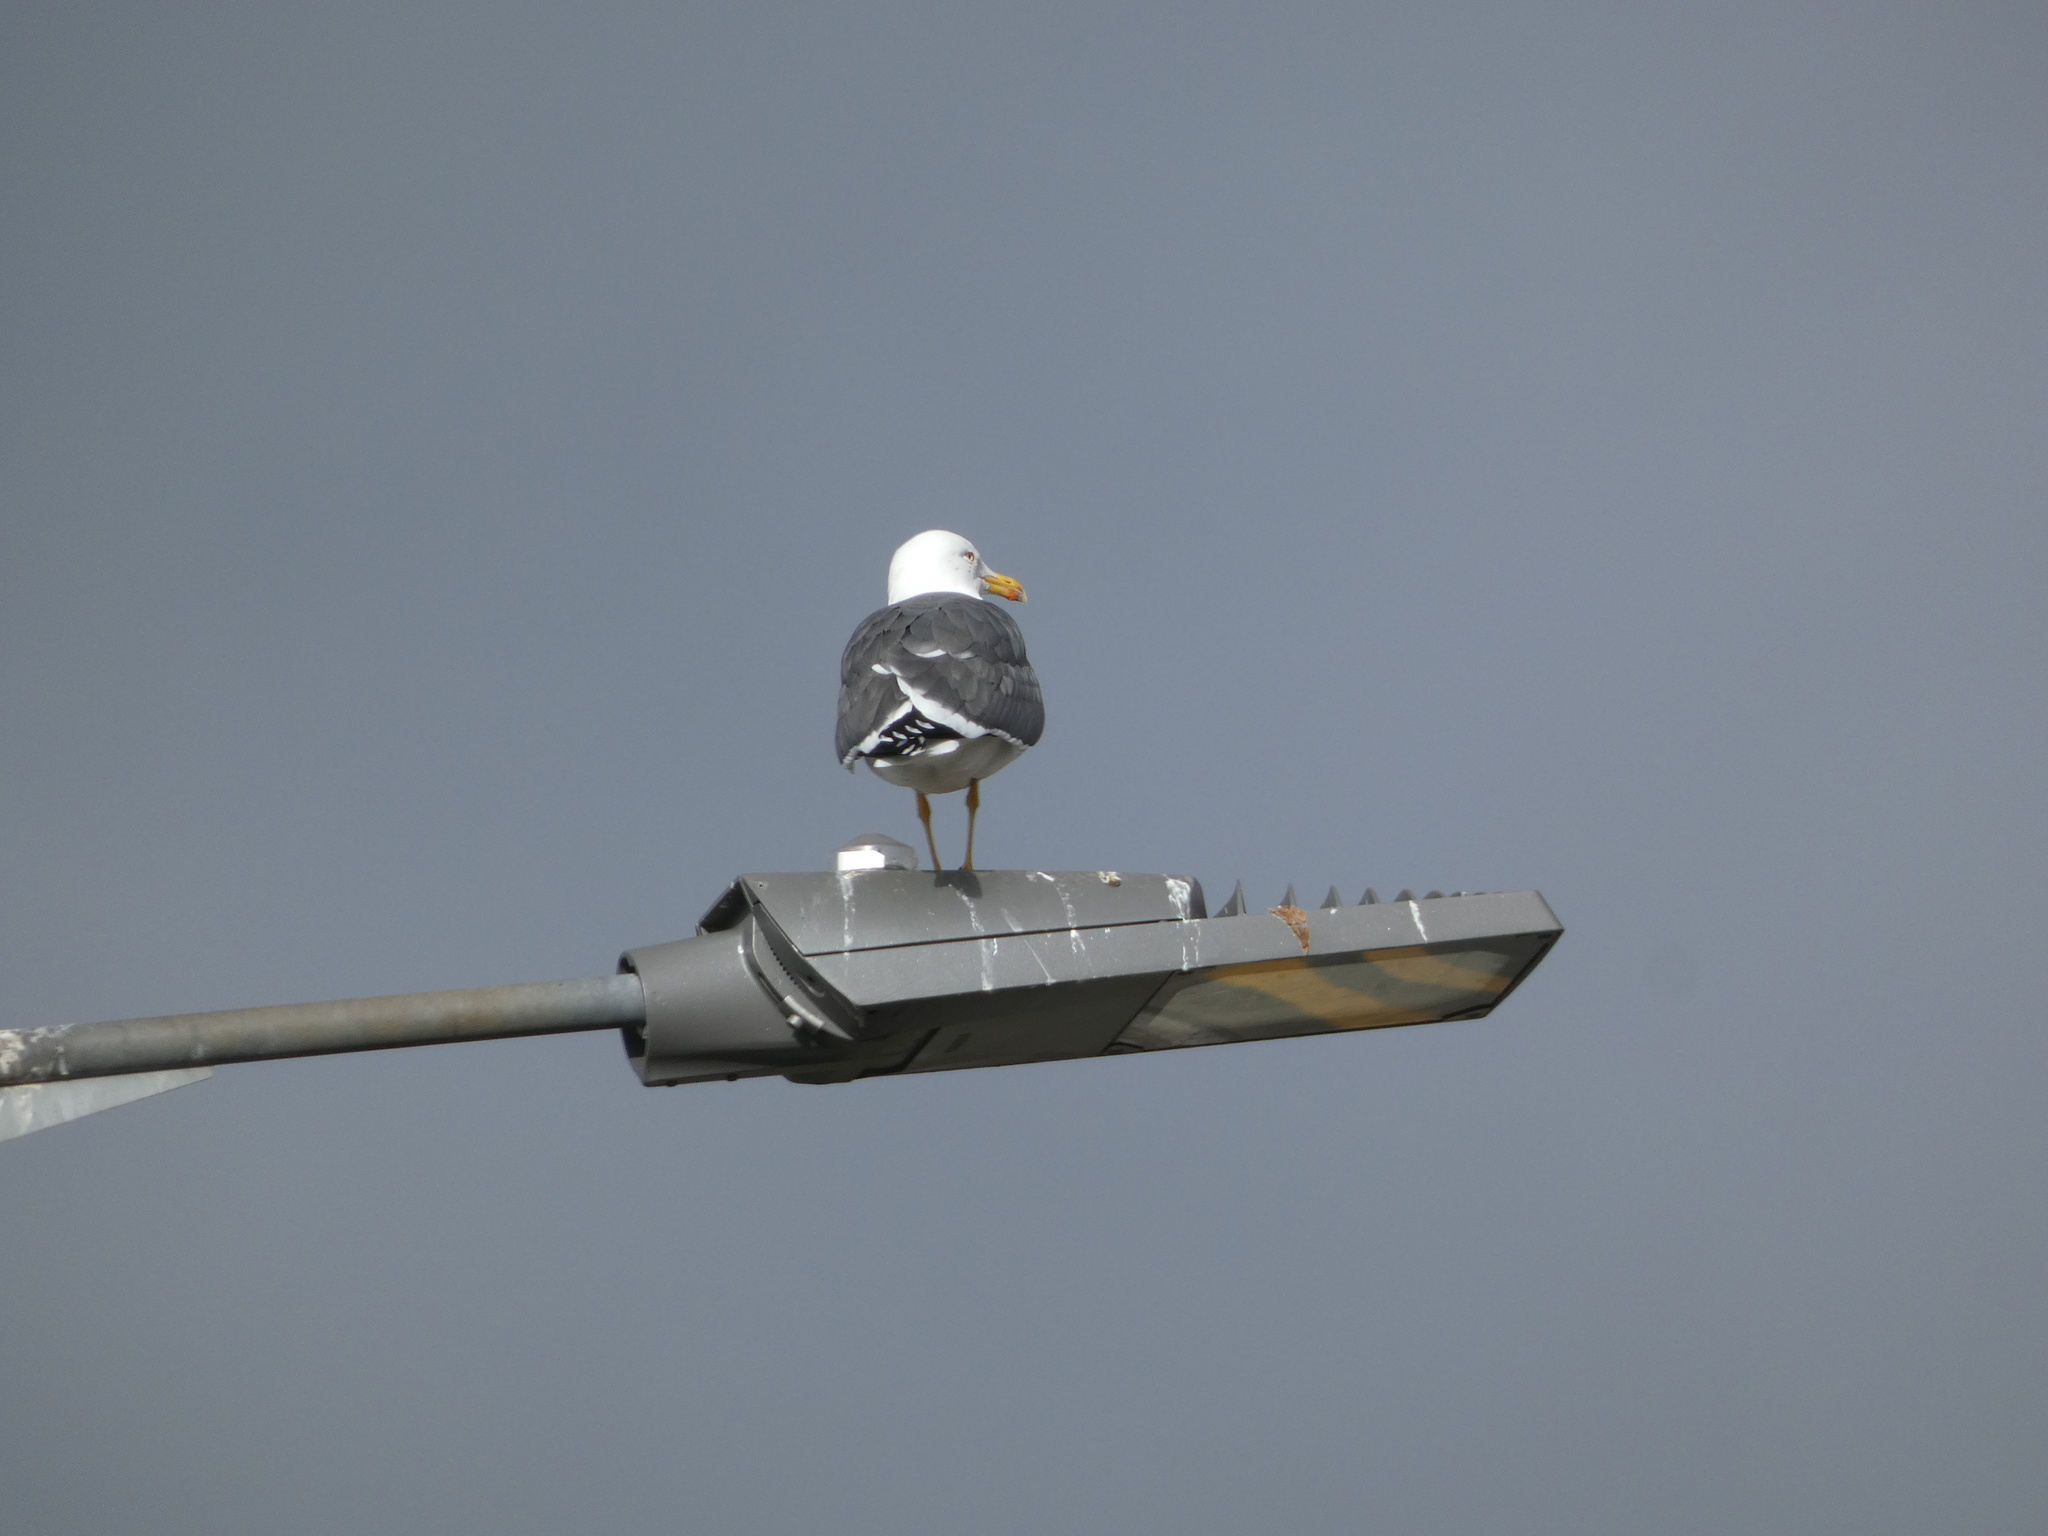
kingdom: Animalia
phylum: Chordata
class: Aves
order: Charadriiformes
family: Laridae
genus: Larus
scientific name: Larus fuscus
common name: Lesser black-backed gull
